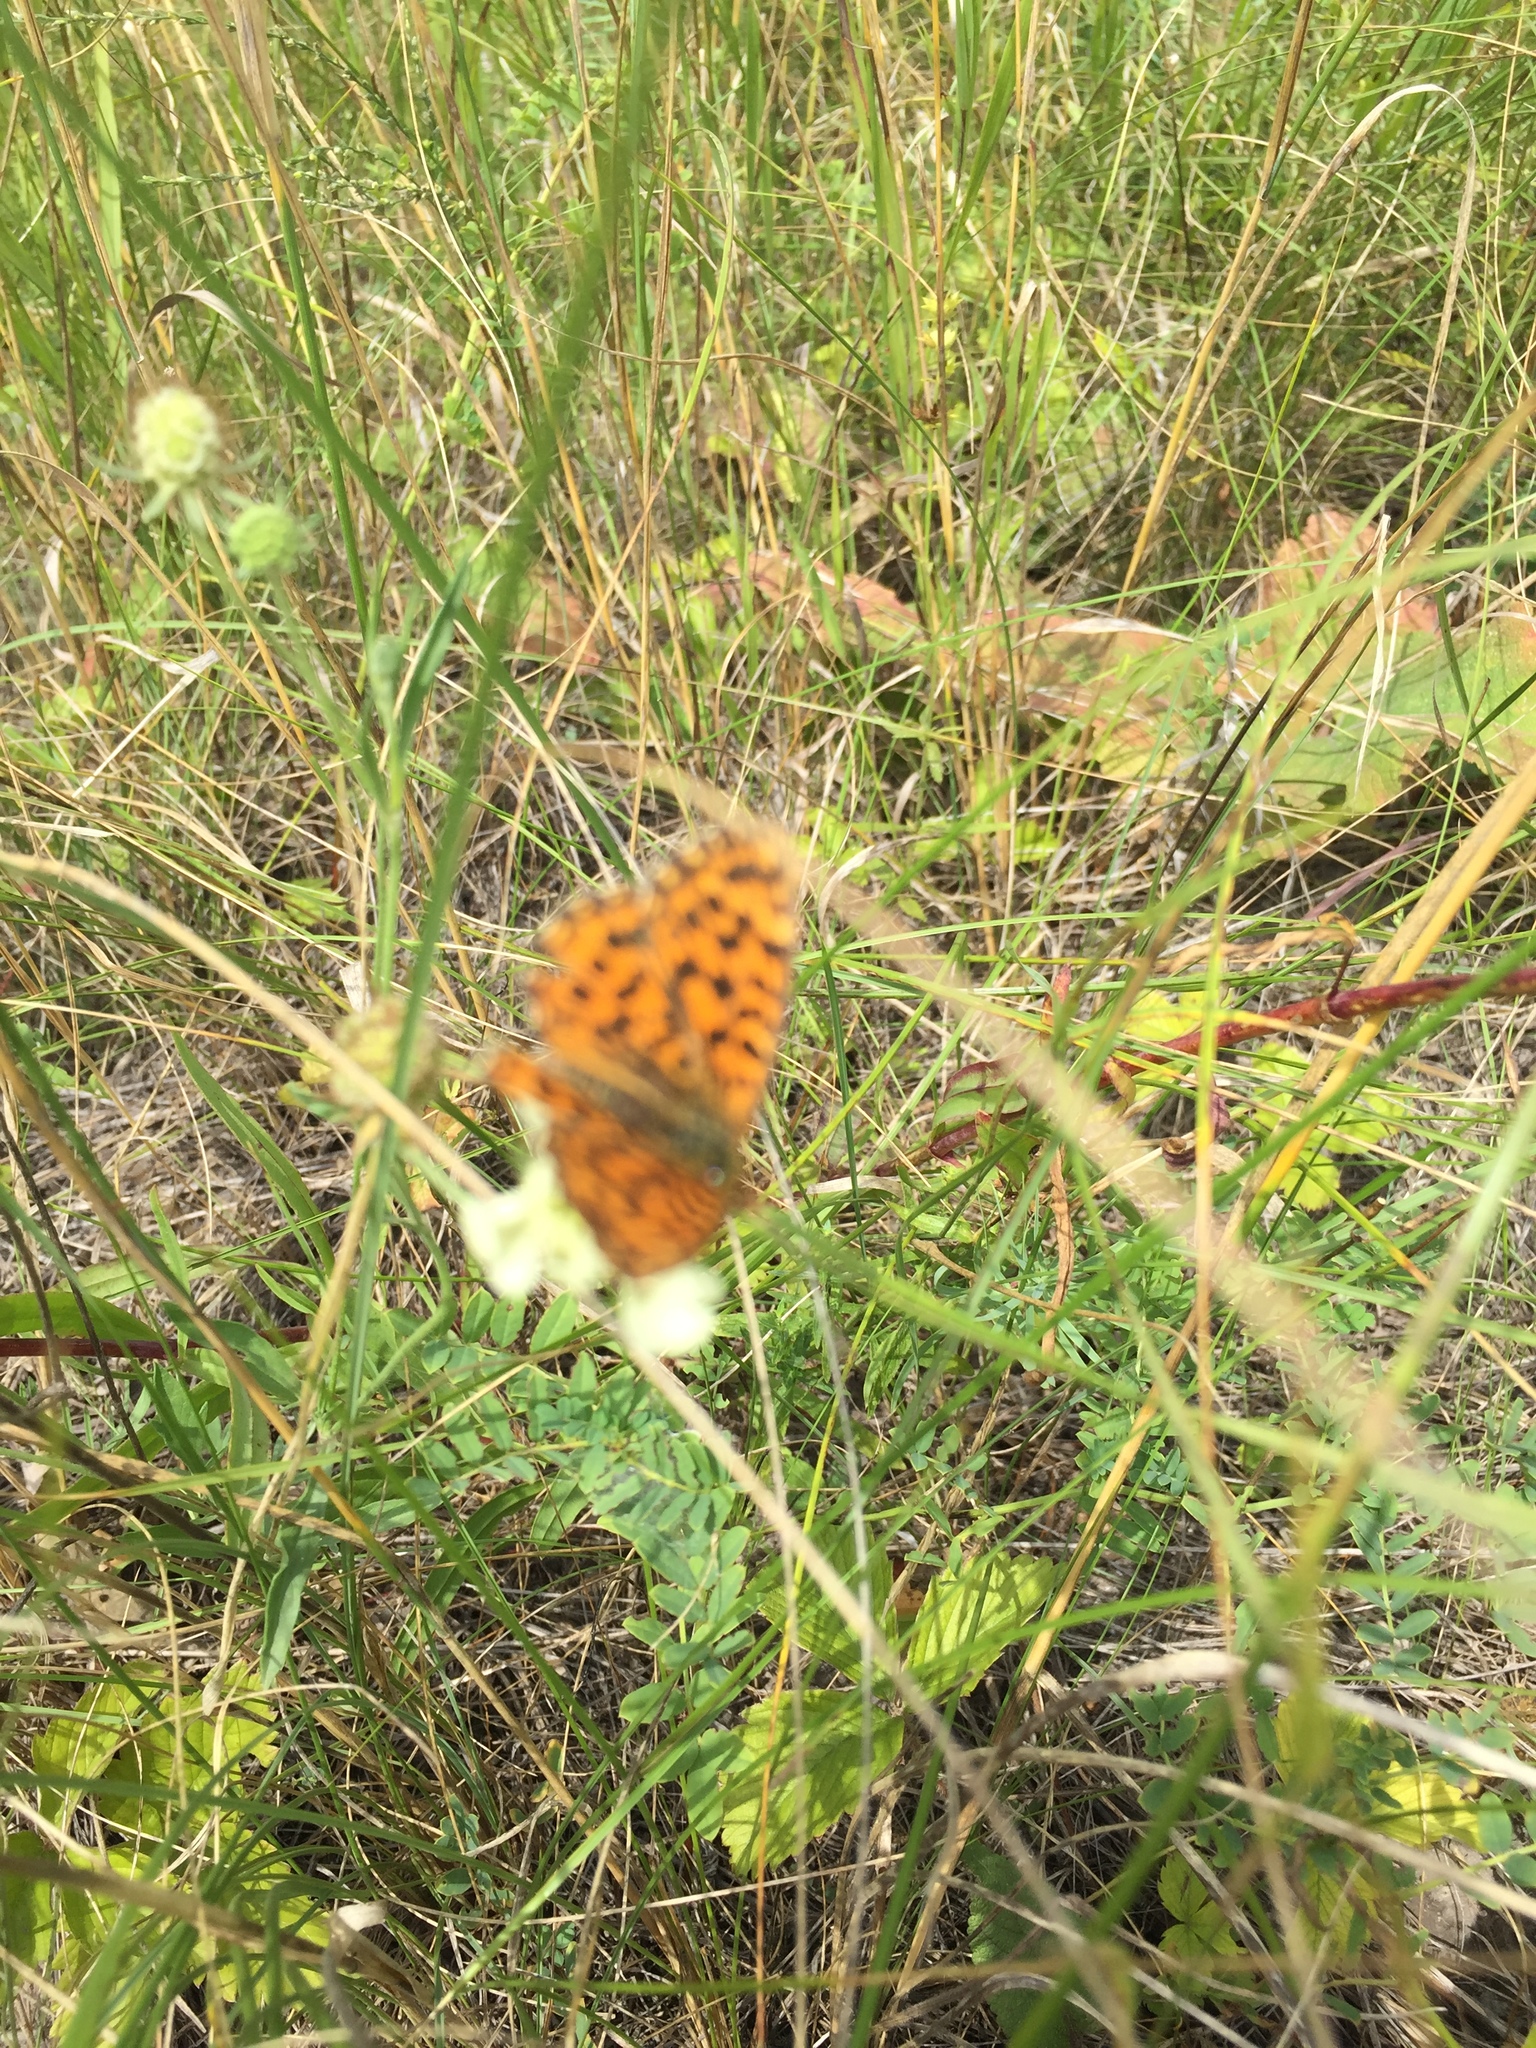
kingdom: Animalia
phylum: Arthropoda
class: Insecta
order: Lepidoptera
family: Nymphalidae
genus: Boloria
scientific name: Boloria dia
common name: Weaver's fritillary
